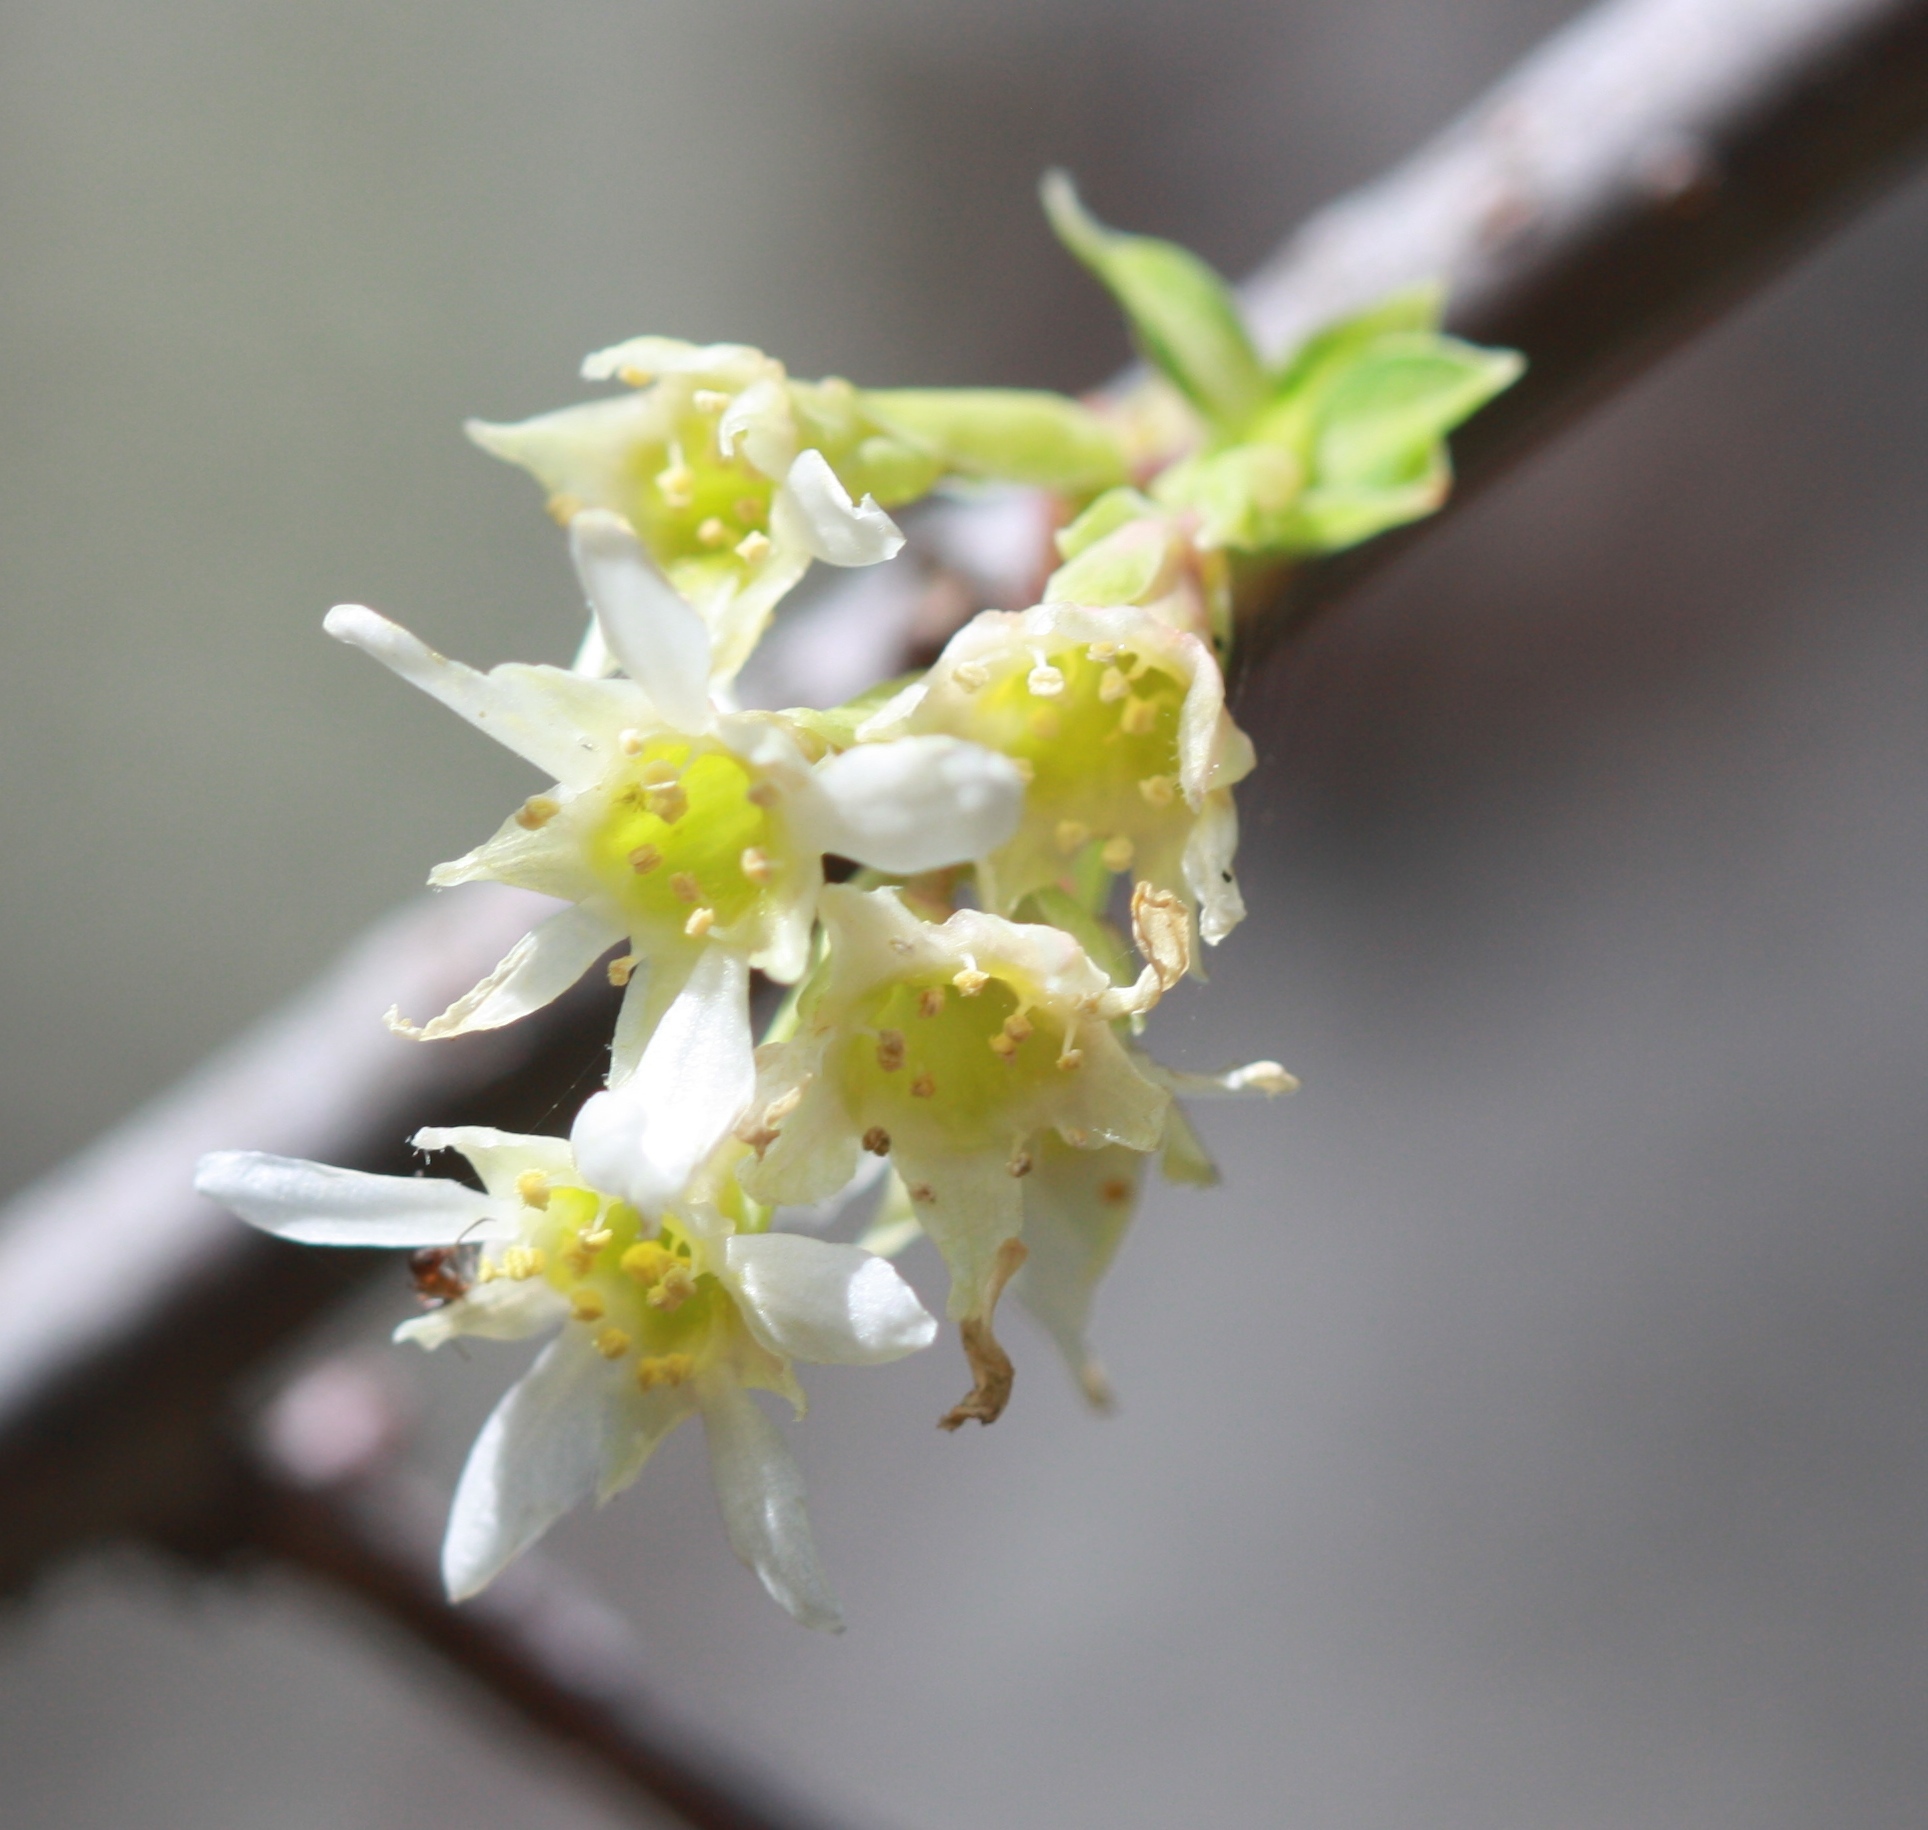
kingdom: Plantae
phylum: Tracheophyta
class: Magnoliopsida
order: Rosales
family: Rosaceae
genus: Oemleria
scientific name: Oemleria cerasiformis
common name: Osoberry
